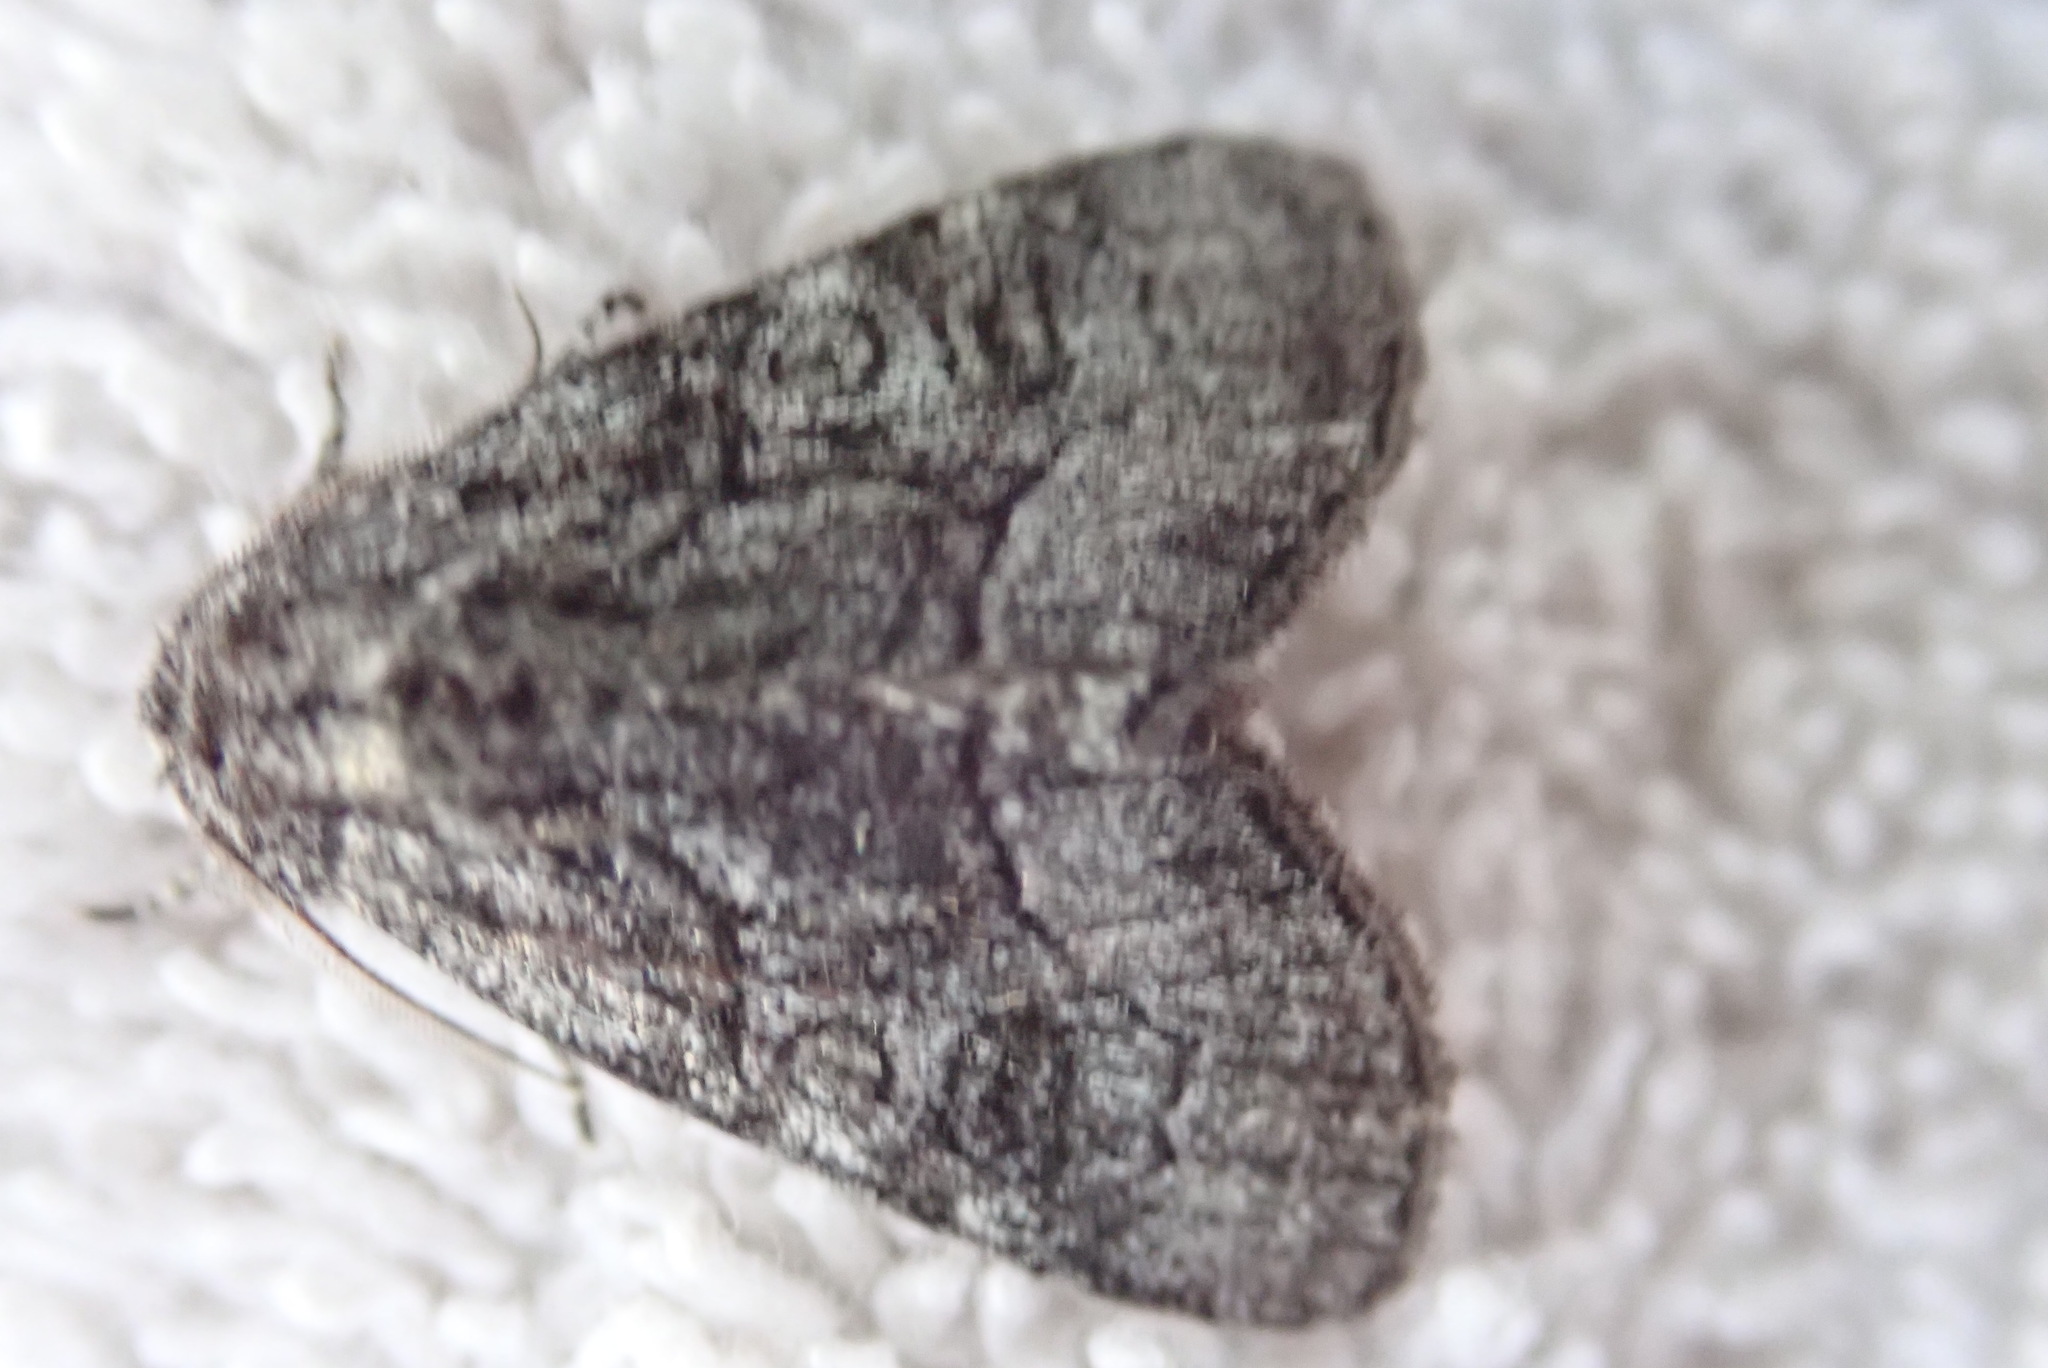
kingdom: Animalia
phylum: Arthropoda
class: Insecta
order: Lepidoptera
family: Noctuidae
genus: Raphia
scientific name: Raphia frater
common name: Brother
